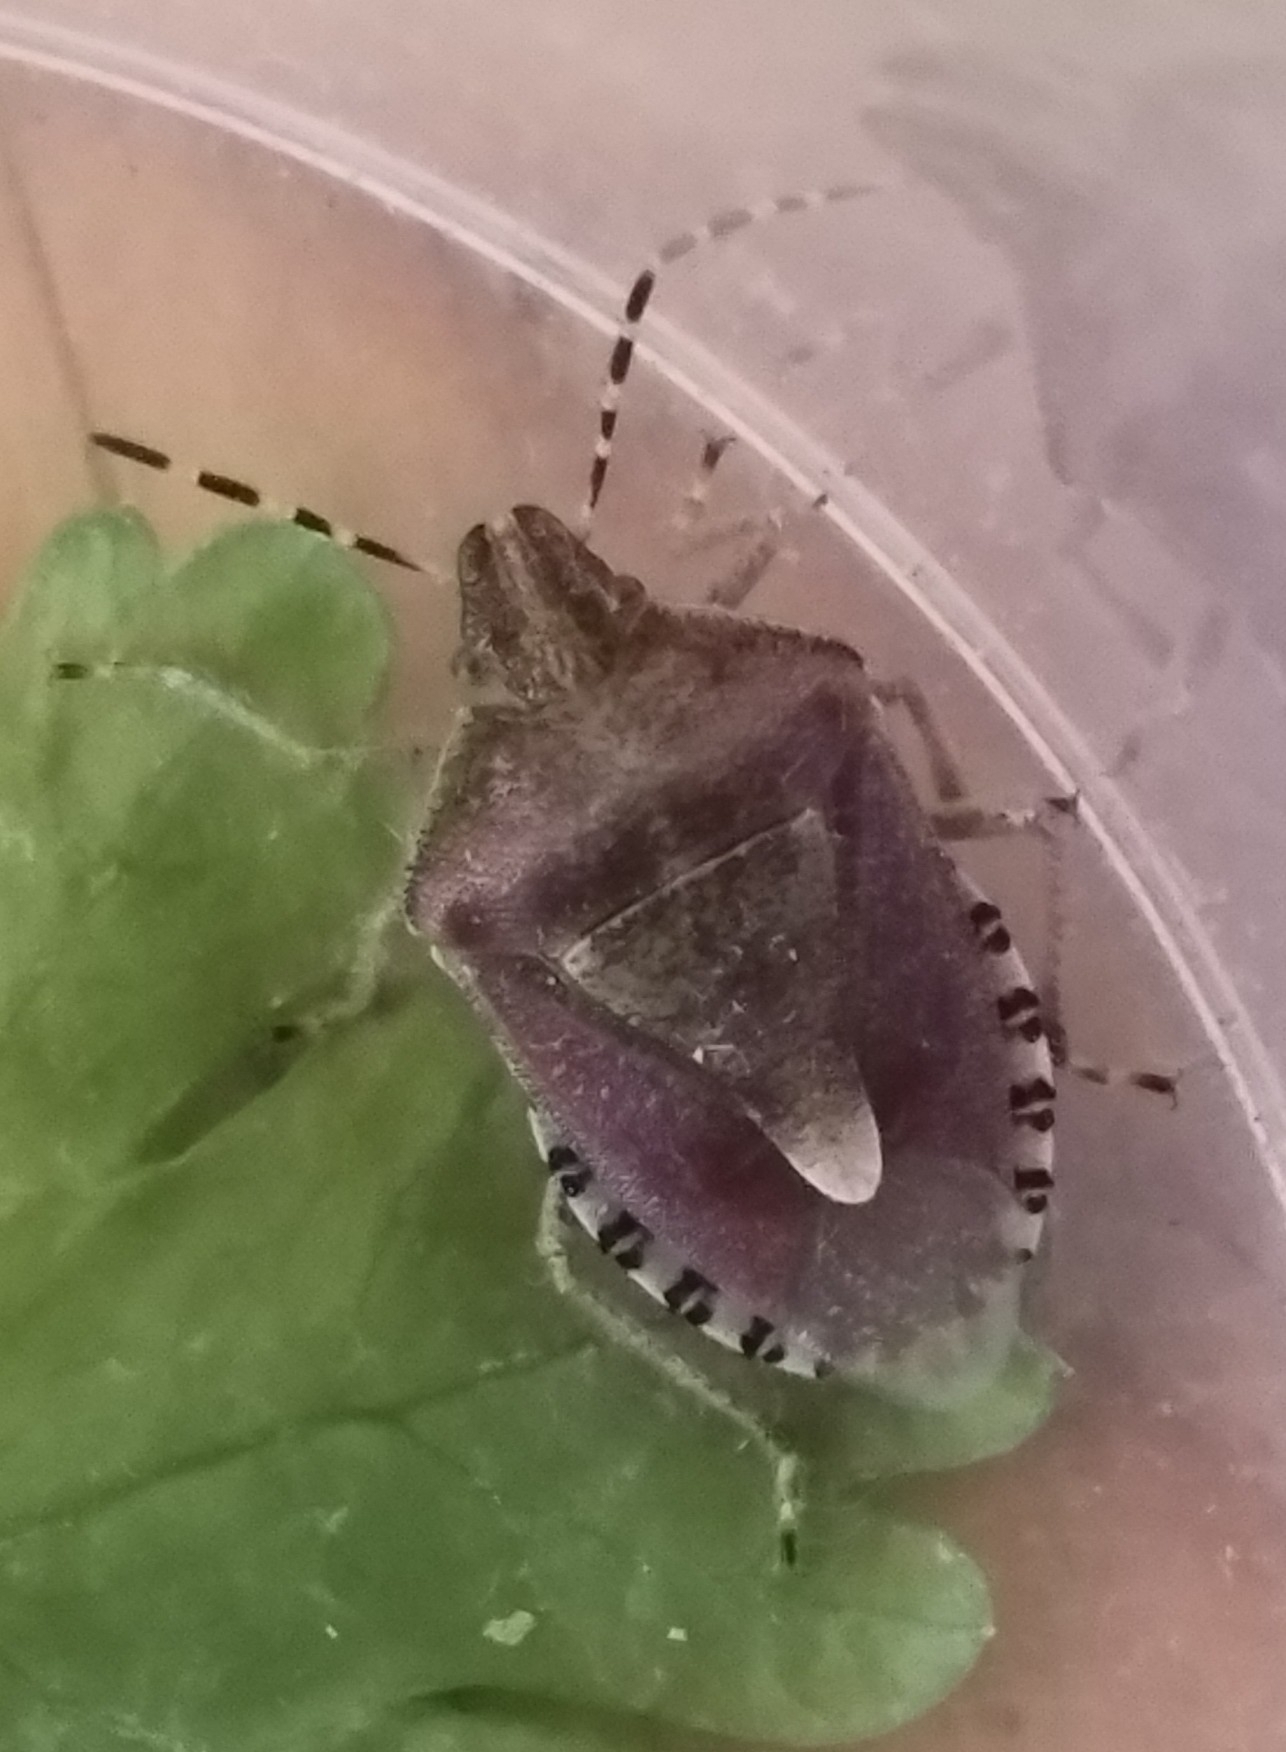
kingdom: Animalia
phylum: Arthropoda
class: Insecta
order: Hemiptera
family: Pentatomidae
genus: Dolycoris
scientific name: Dolycoris baccarum
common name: Sloe bug
